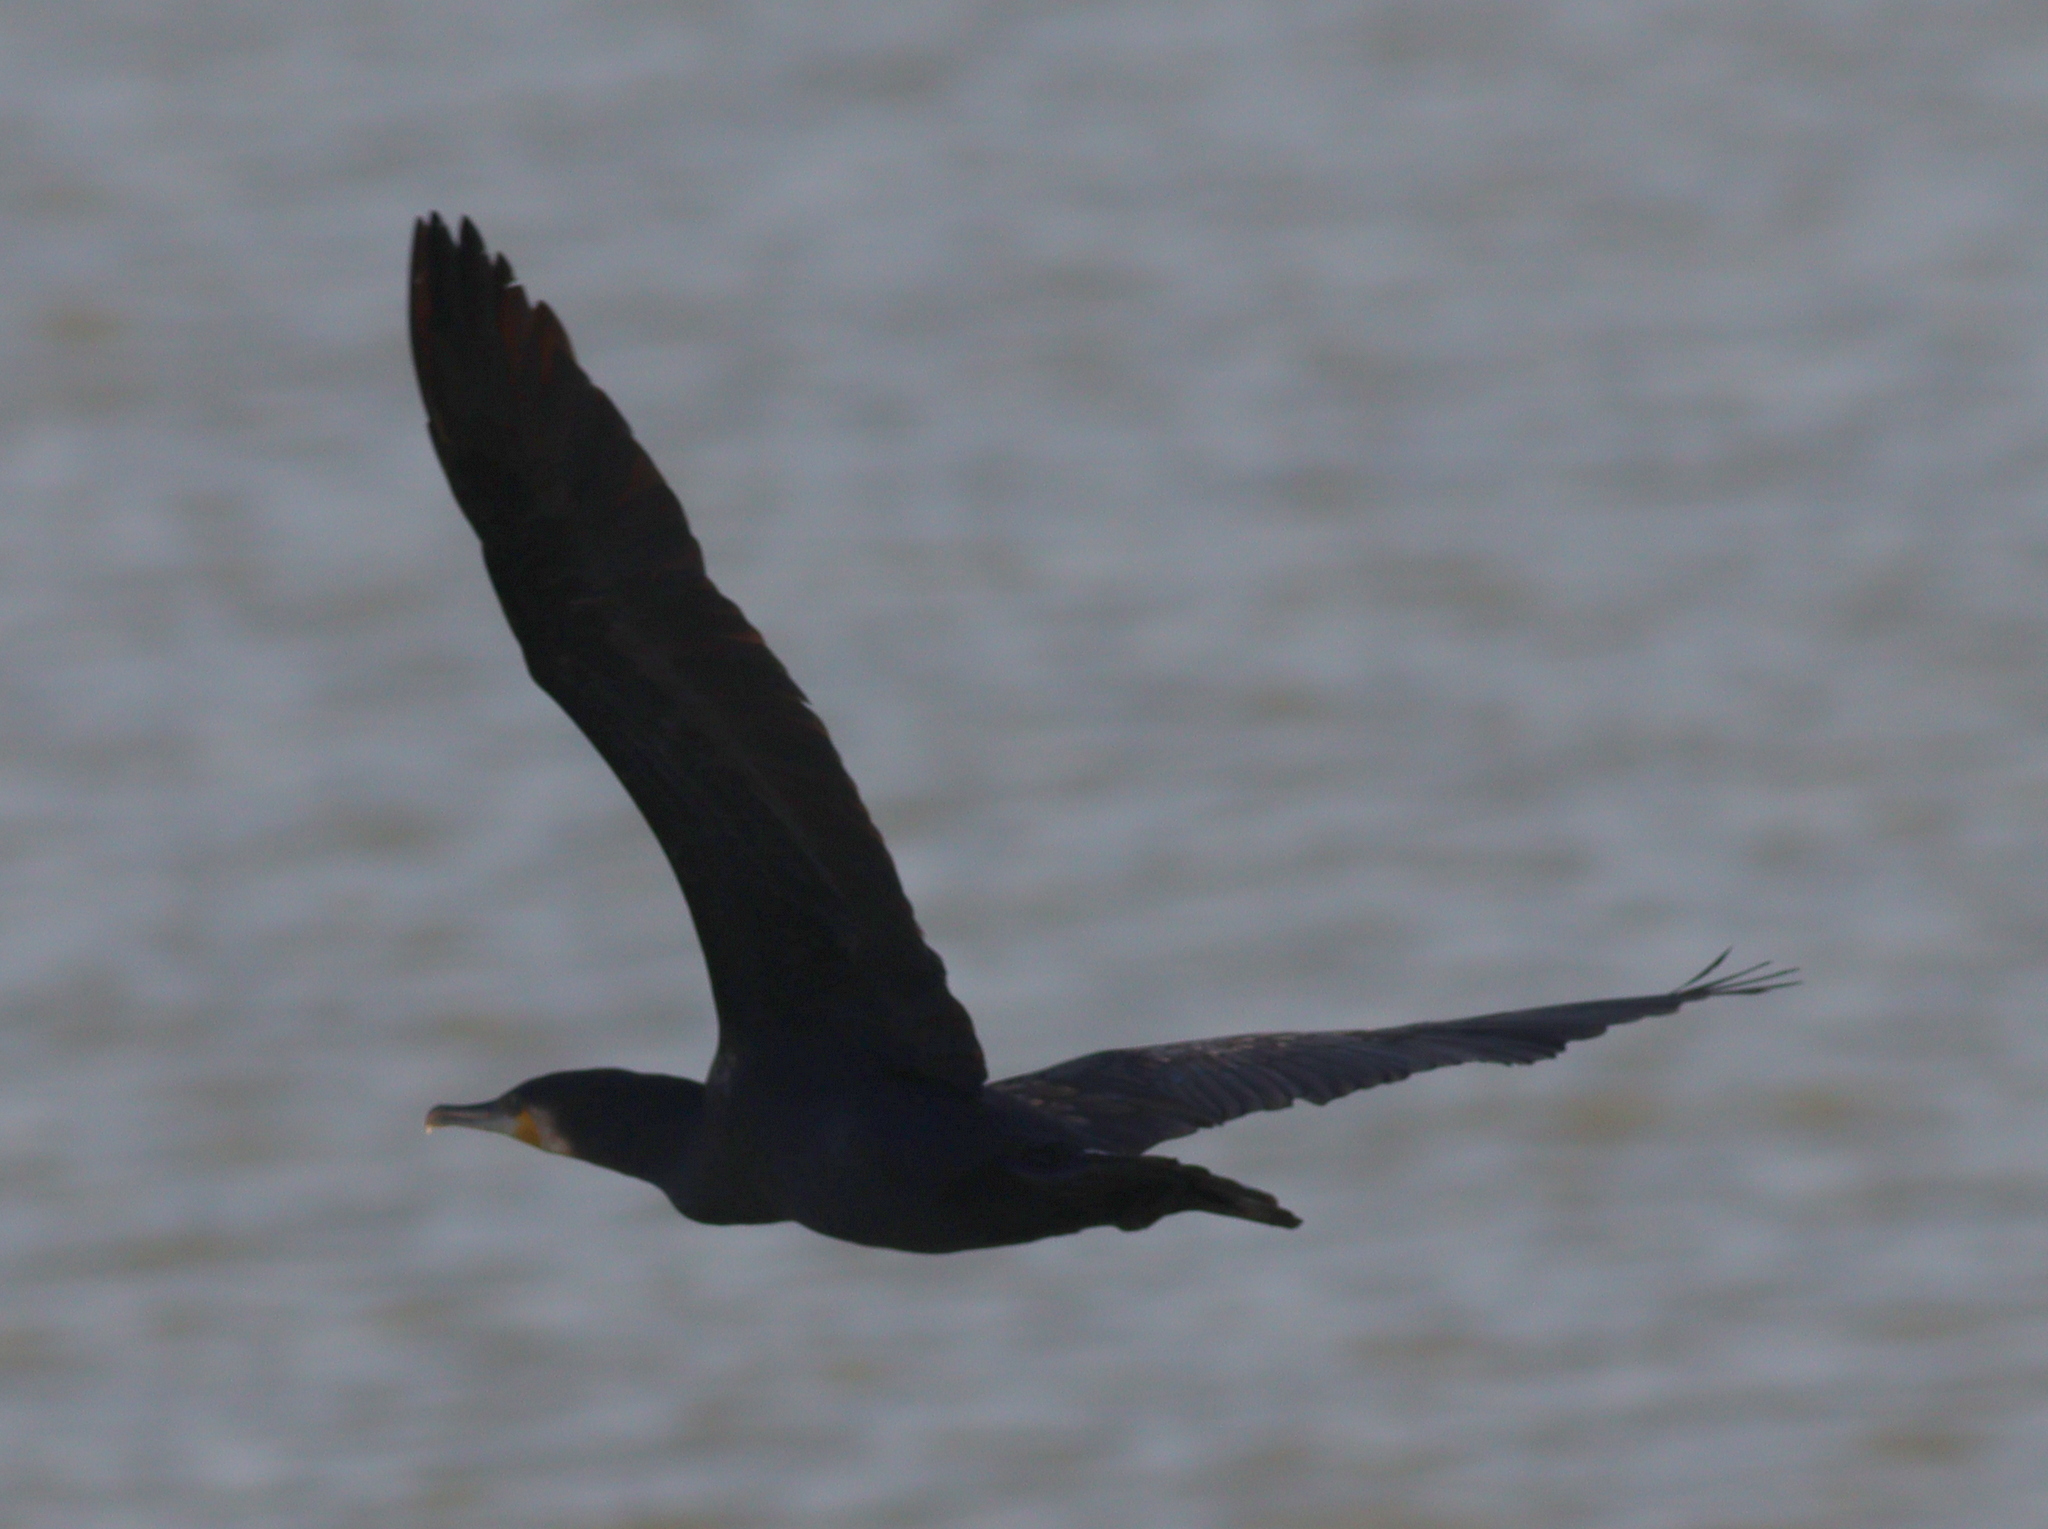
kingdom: Animalia
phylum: Chordata
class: Aves
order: Suliformes
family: Phalacrocoracidae
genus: Phalacrocorax
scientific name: Phalacrocorax carbo
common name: Great cormorant
